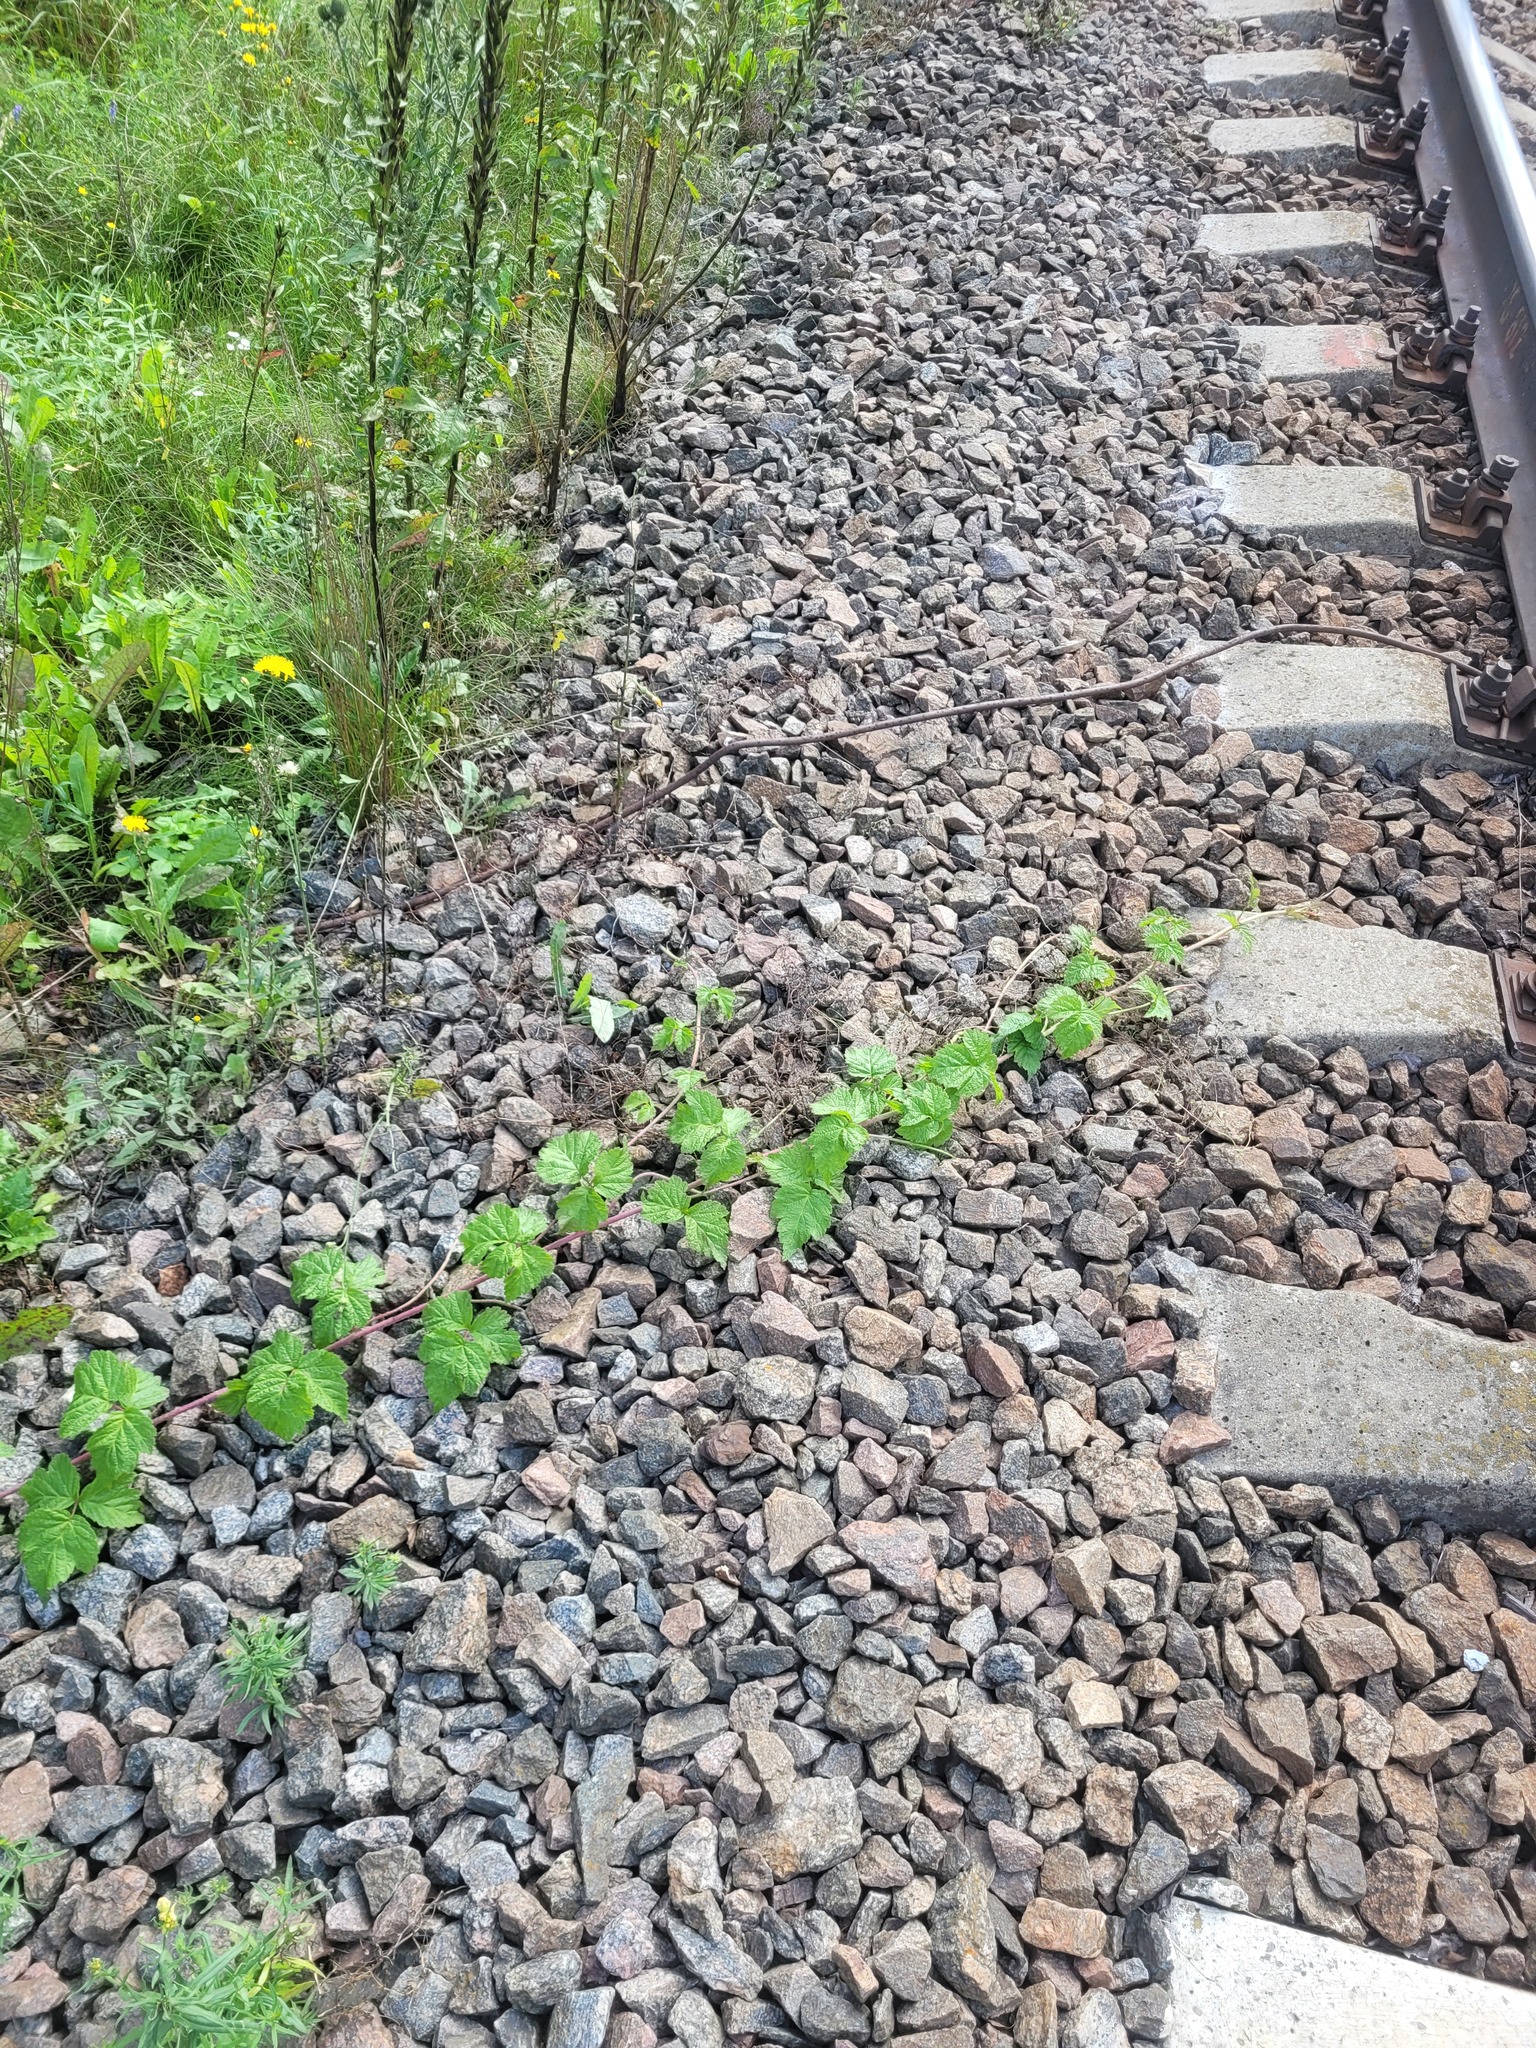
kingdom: Plantae
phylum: Tracheophyta
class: Magnoliopsida
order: Rosales
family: Rosaceae
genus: Rubus
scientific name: Rubus caesius
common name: Dewberry
